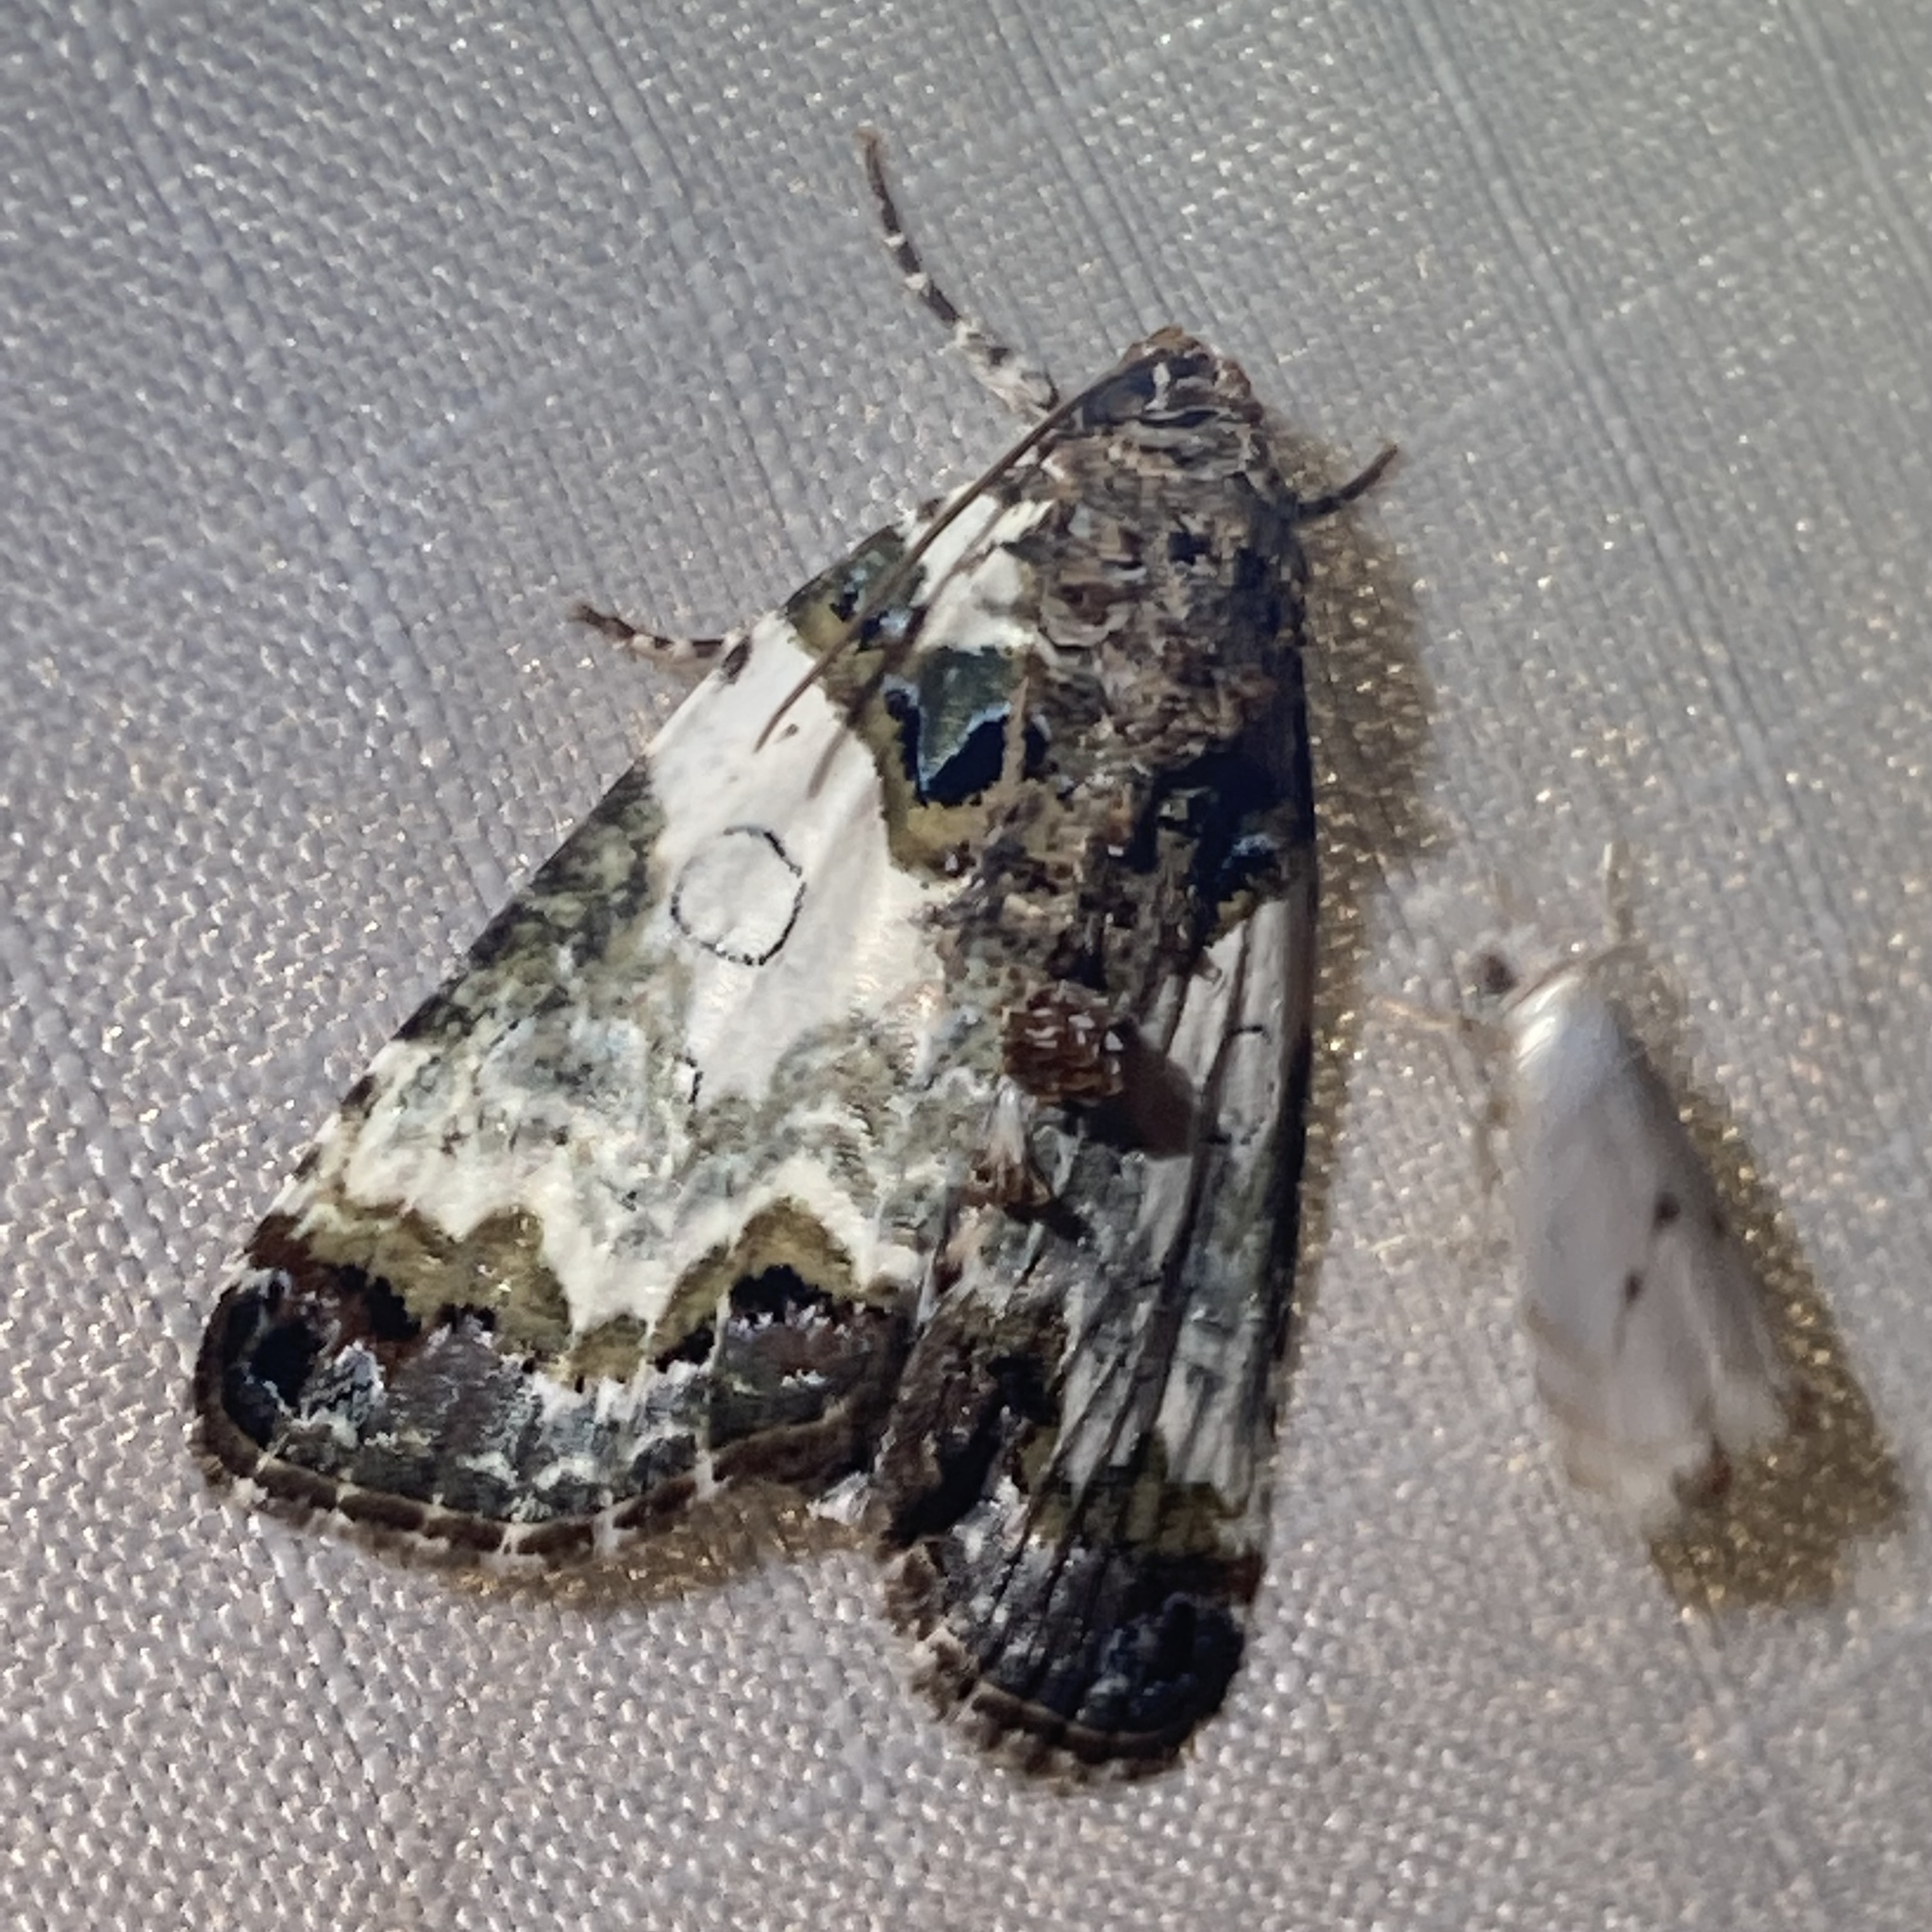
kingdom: Animalia
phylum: Arthropoda
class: Insecta
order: Lepidoptera
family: Noctuidae
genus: Cerma
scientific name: Cerma cerintha
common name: Tufted bird-dropping moth
